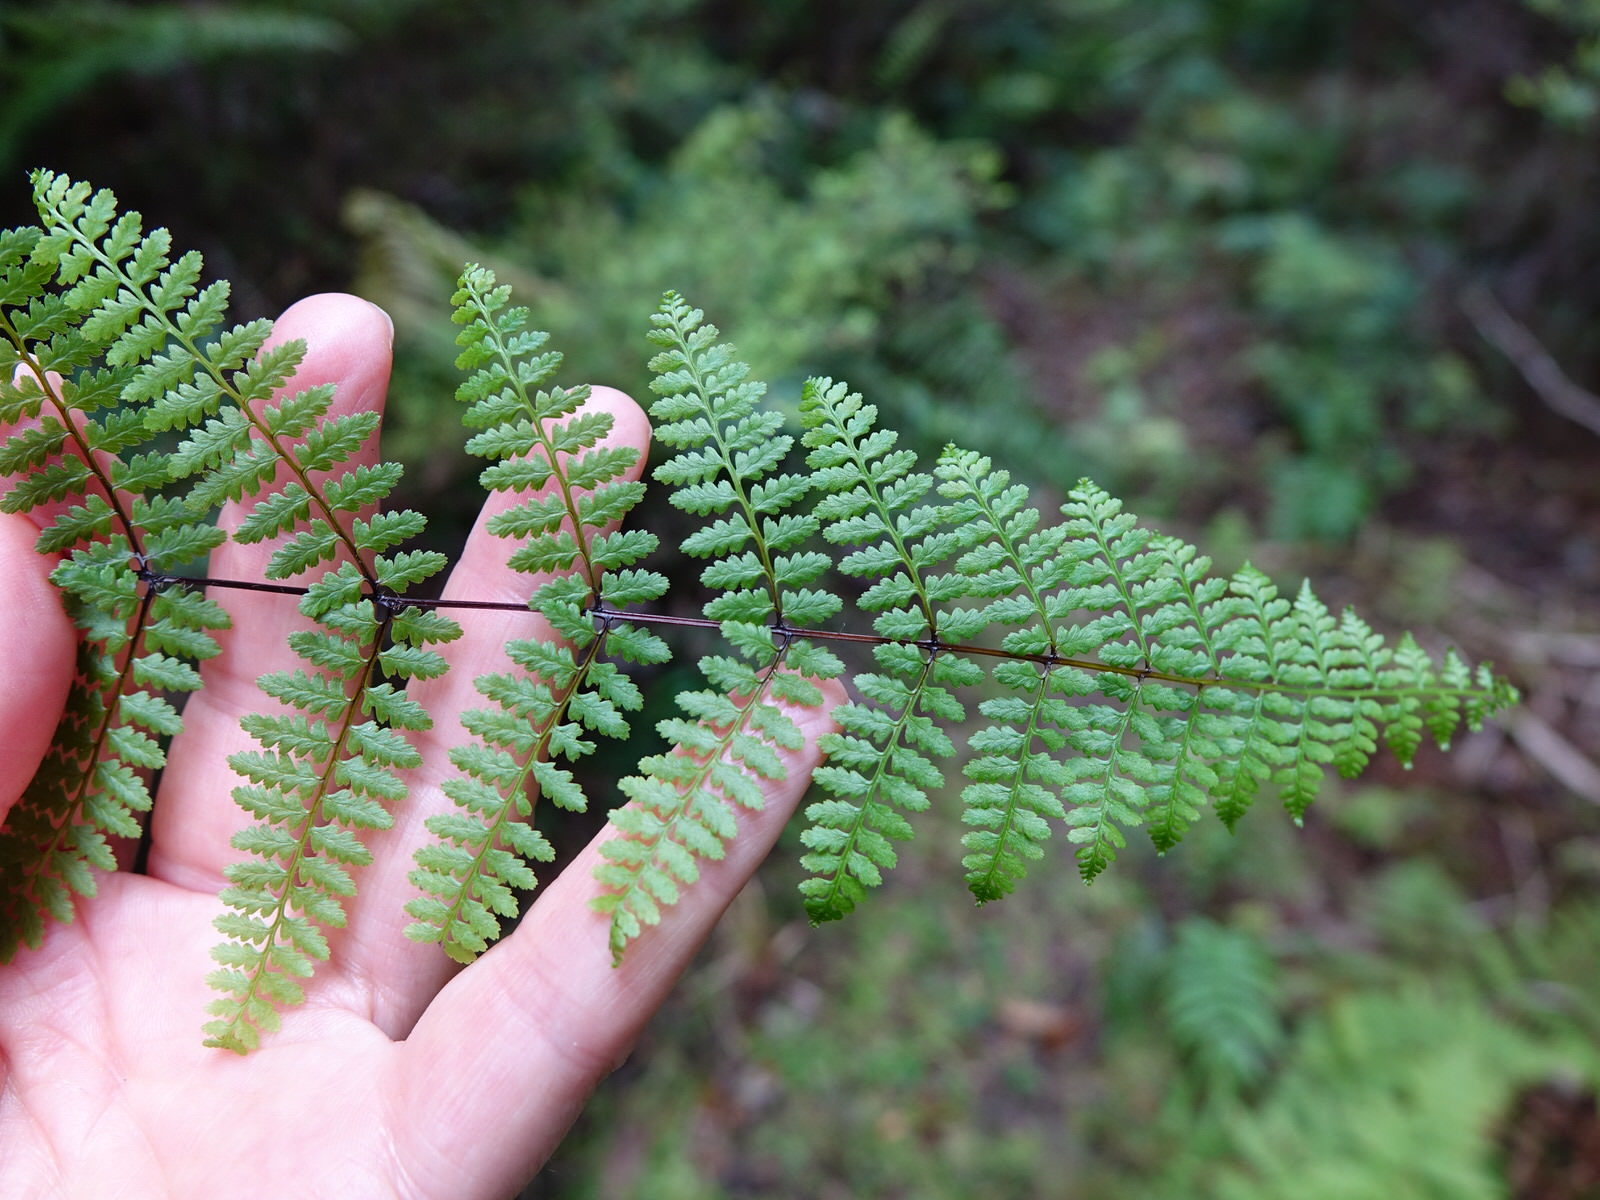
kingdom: Plantae
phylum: Tracheophyta
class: Polypodiopsida
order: Polypodiales
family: Dennstaedtiaceae
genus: Hiya
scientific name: Hiya distans
